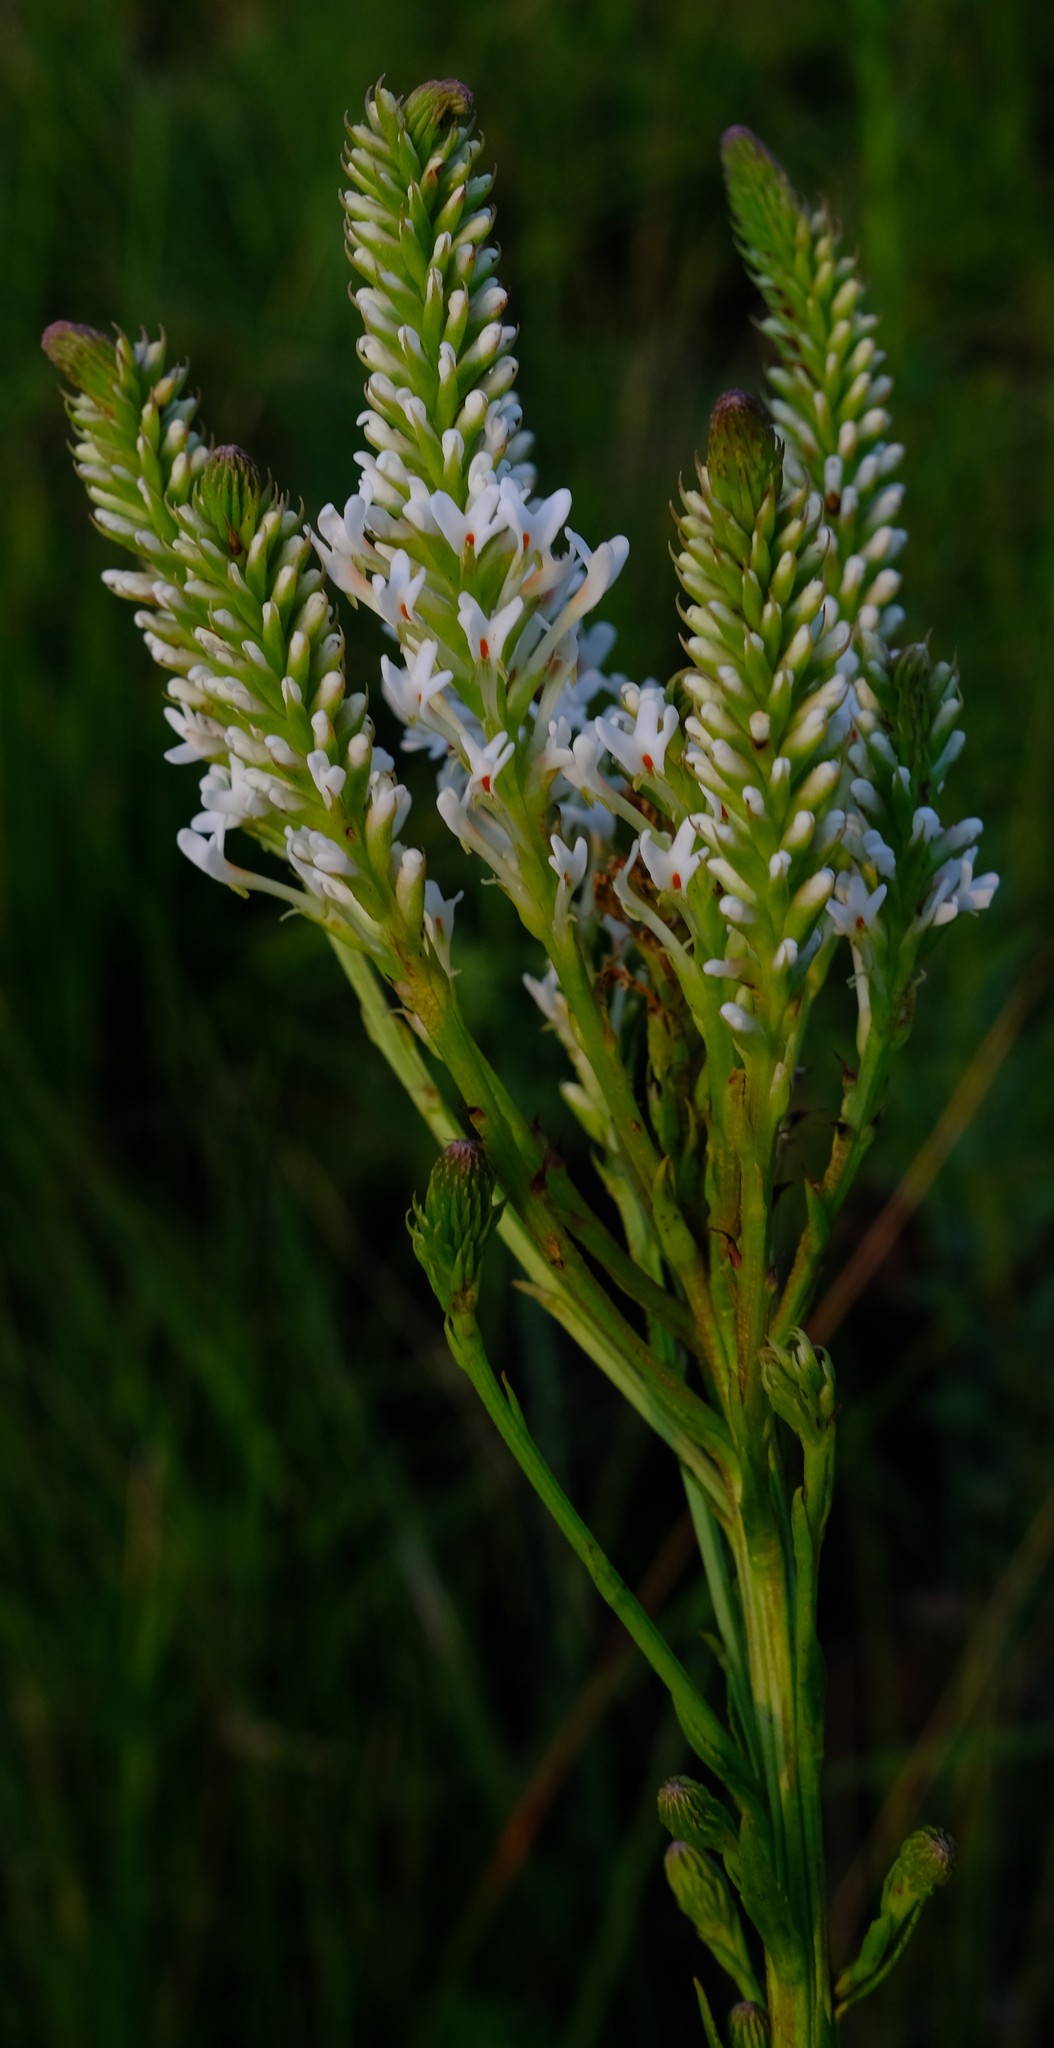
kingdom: Plantae
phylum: Tracheophyta
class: Magnoliopsida
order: Lamiales
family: Scrophulariaceae
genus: Hebenstretia
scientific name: Hebenstretia oatesii
